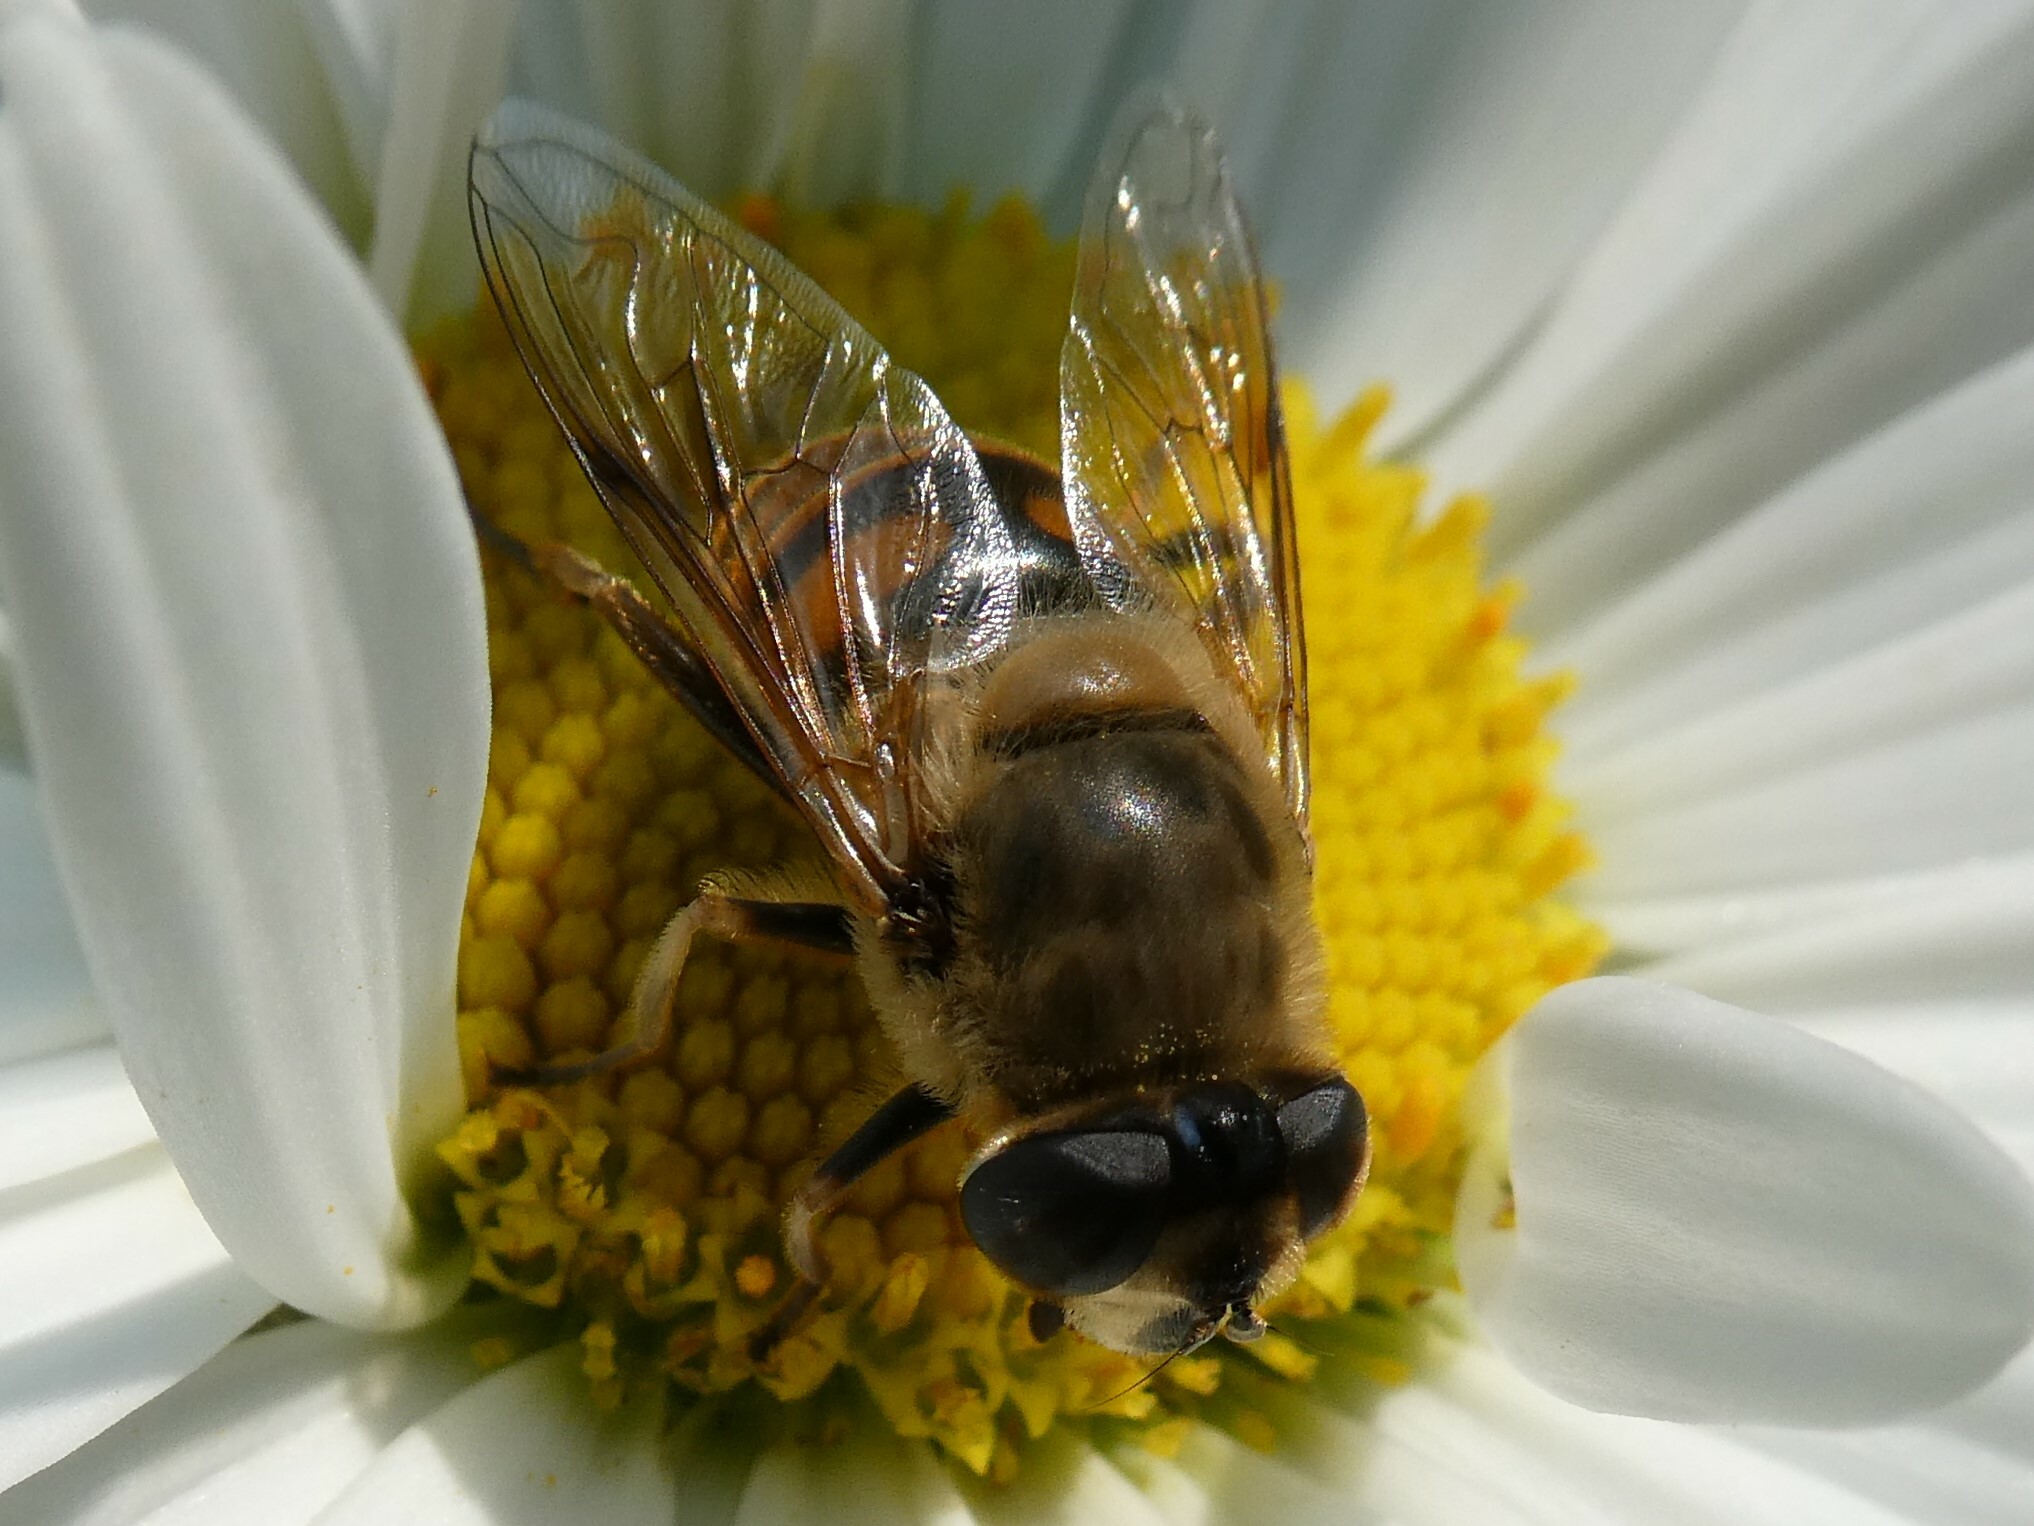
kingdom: Animalia
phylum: Arthropoda
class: Insecta
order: Diptera
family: Syrphidae
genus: Eristalis
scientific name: Eristalis tenax
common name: Drone fly
